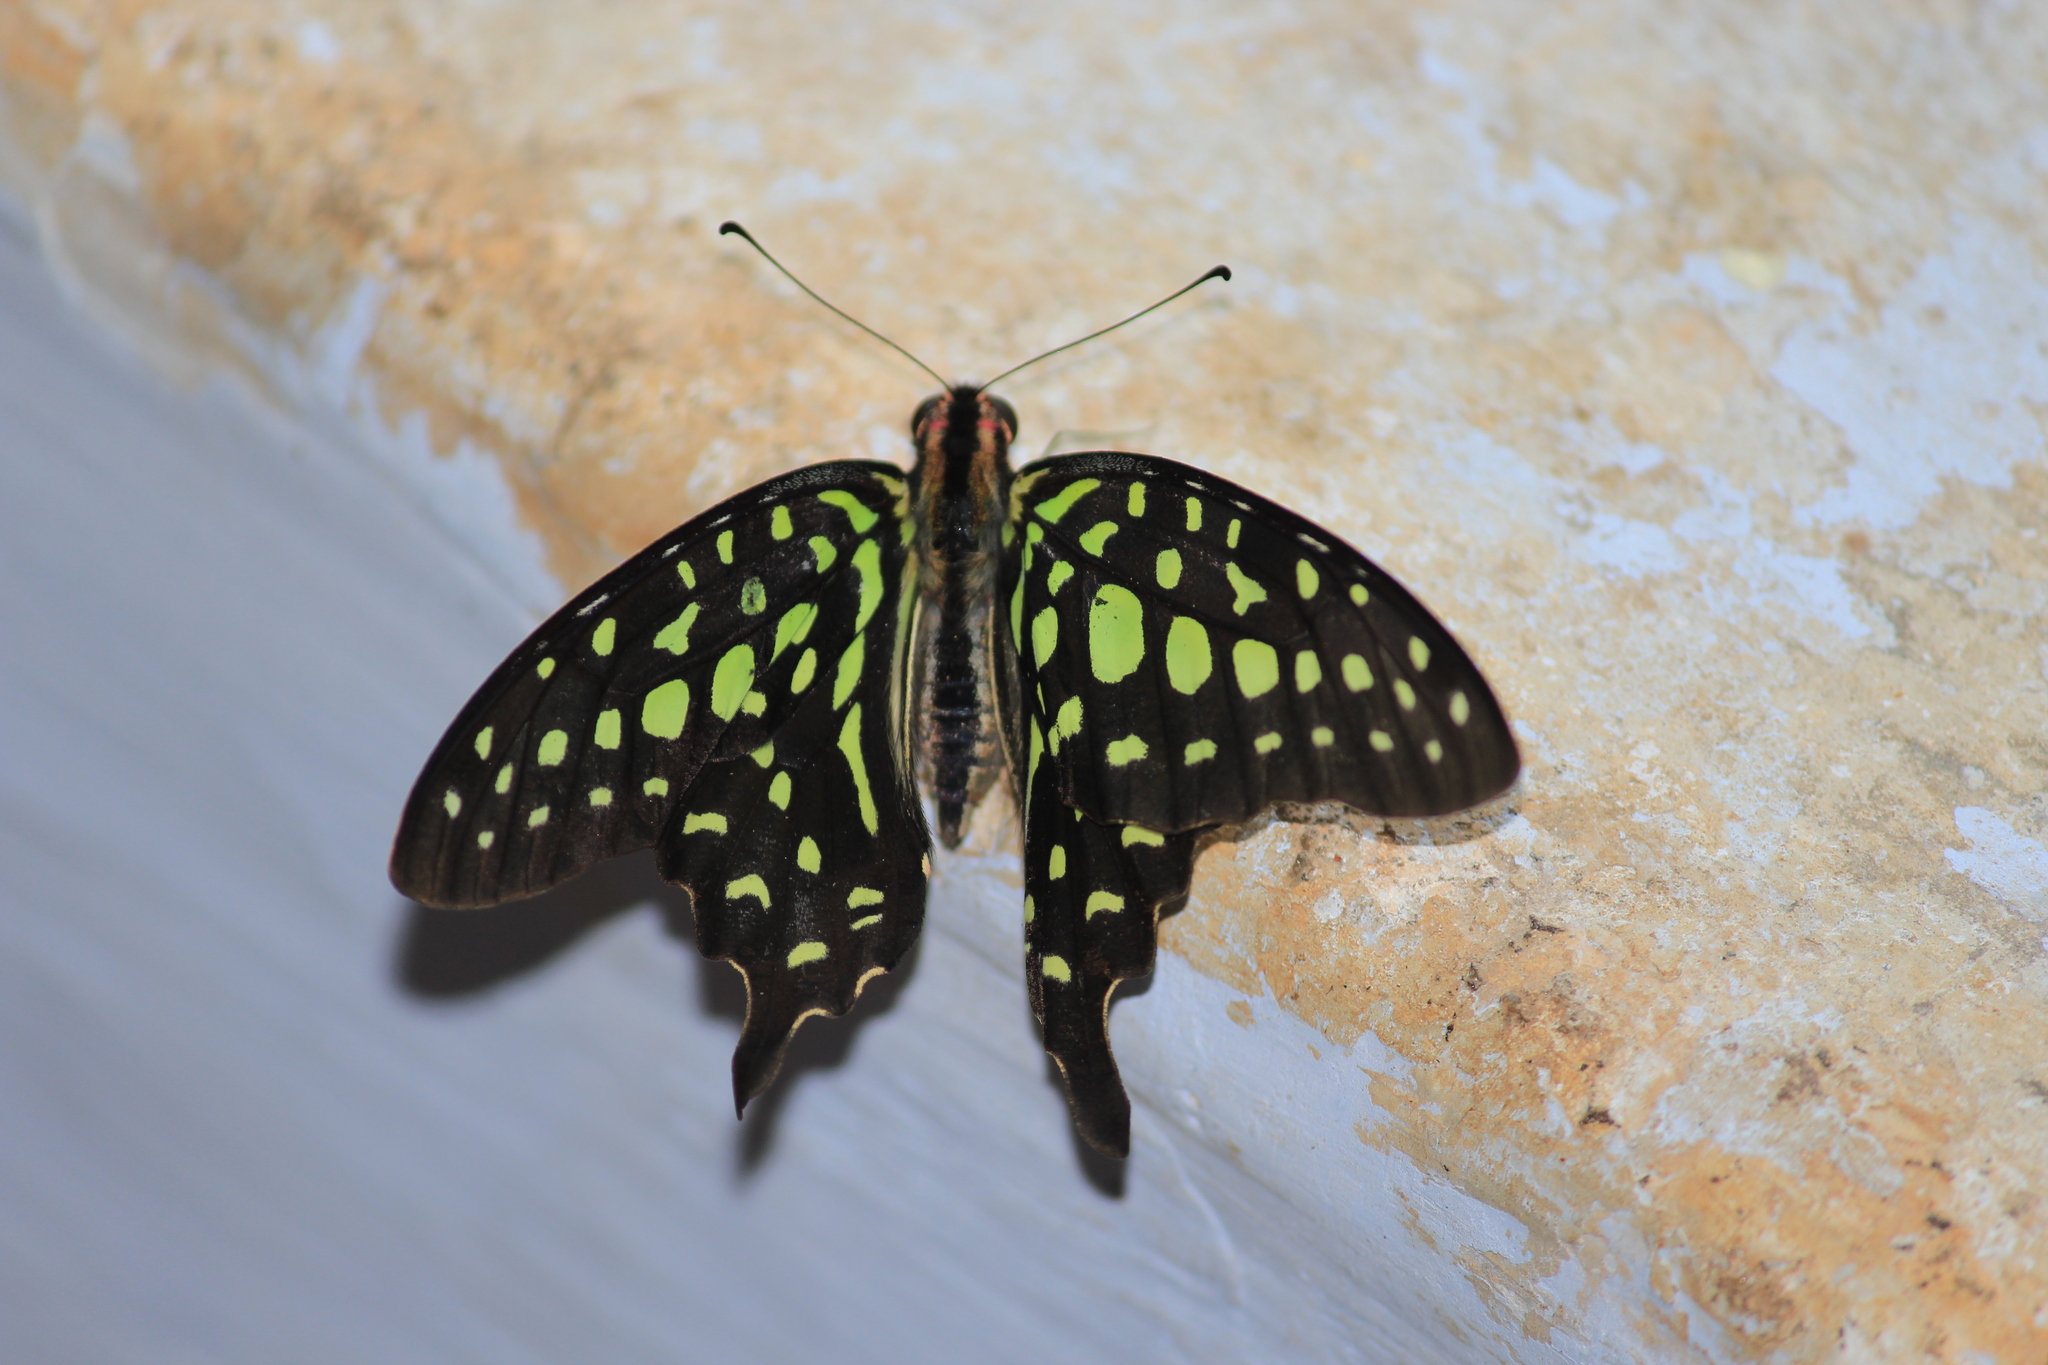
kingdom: Animalia
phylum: Arthropoda
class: Insecta
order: Lepidoptera
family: Papilionidae
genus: Graphium
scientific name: Graphium agamemnon
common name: Tailed jay
